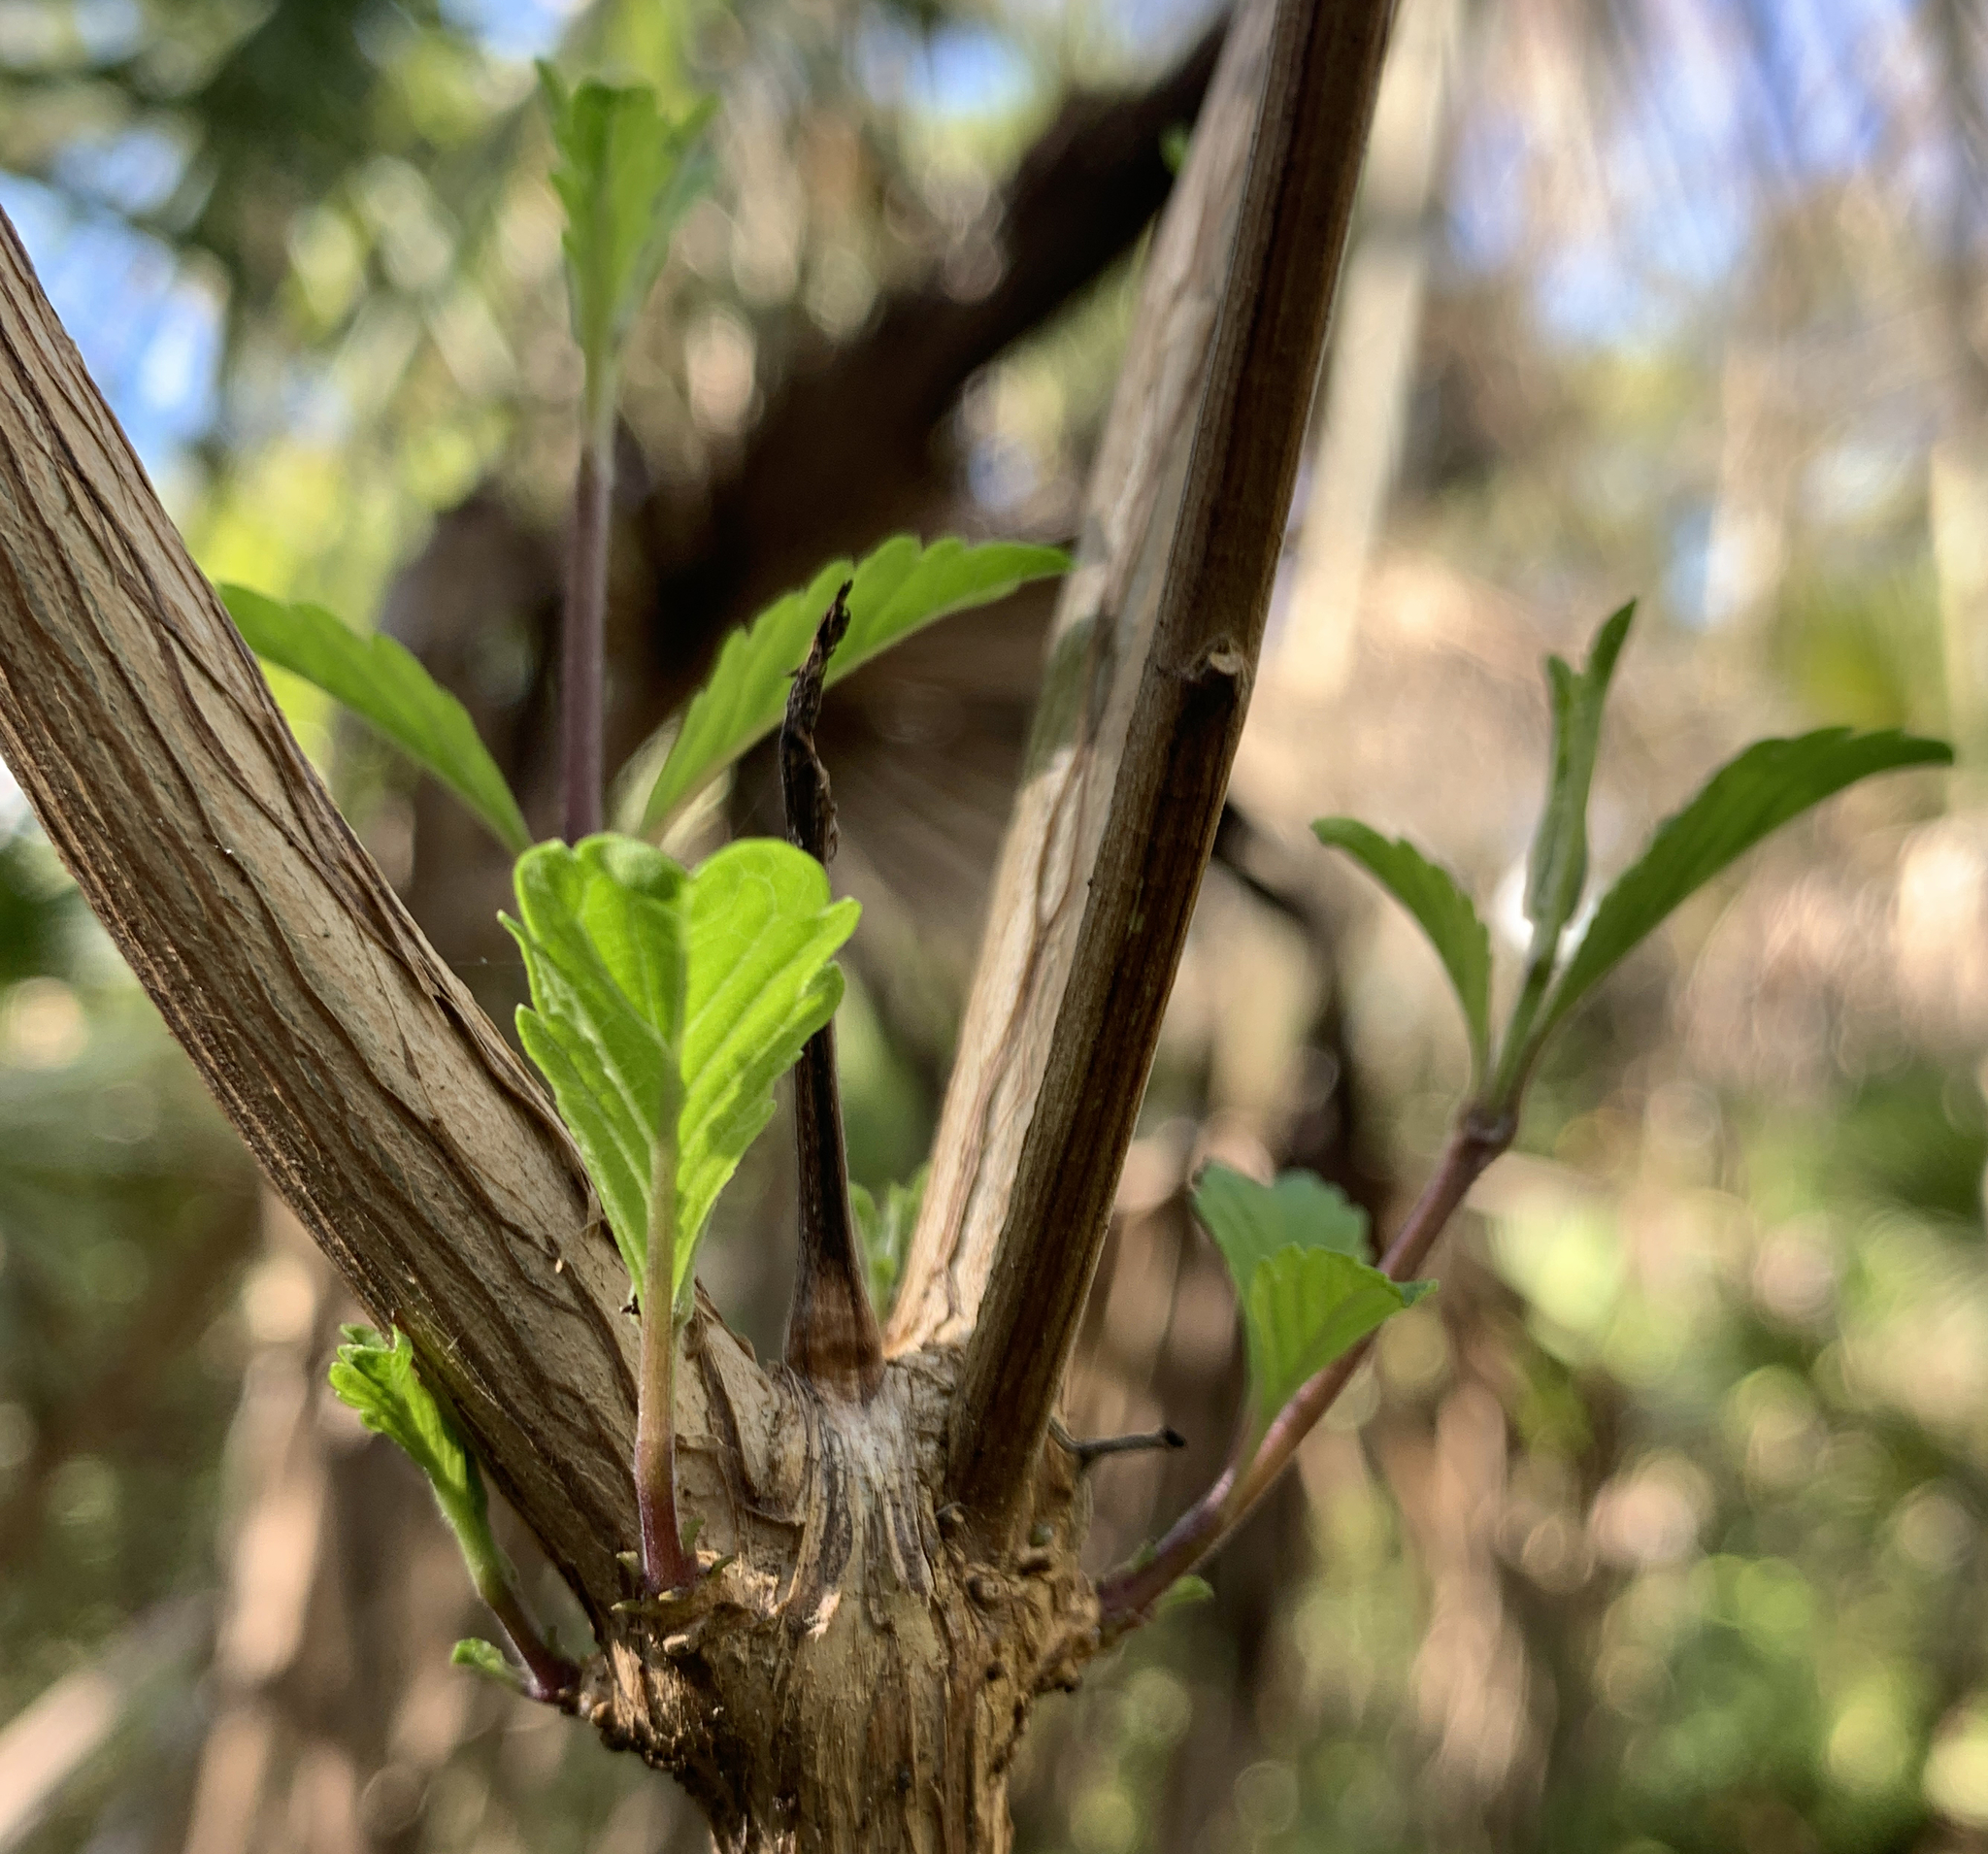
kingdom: Plantae
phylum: Tracheophyta
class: Magnoliopsida
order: Lamiales
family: Lamiaceae
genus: Condea
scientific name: Condea verticillata
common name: John charles
